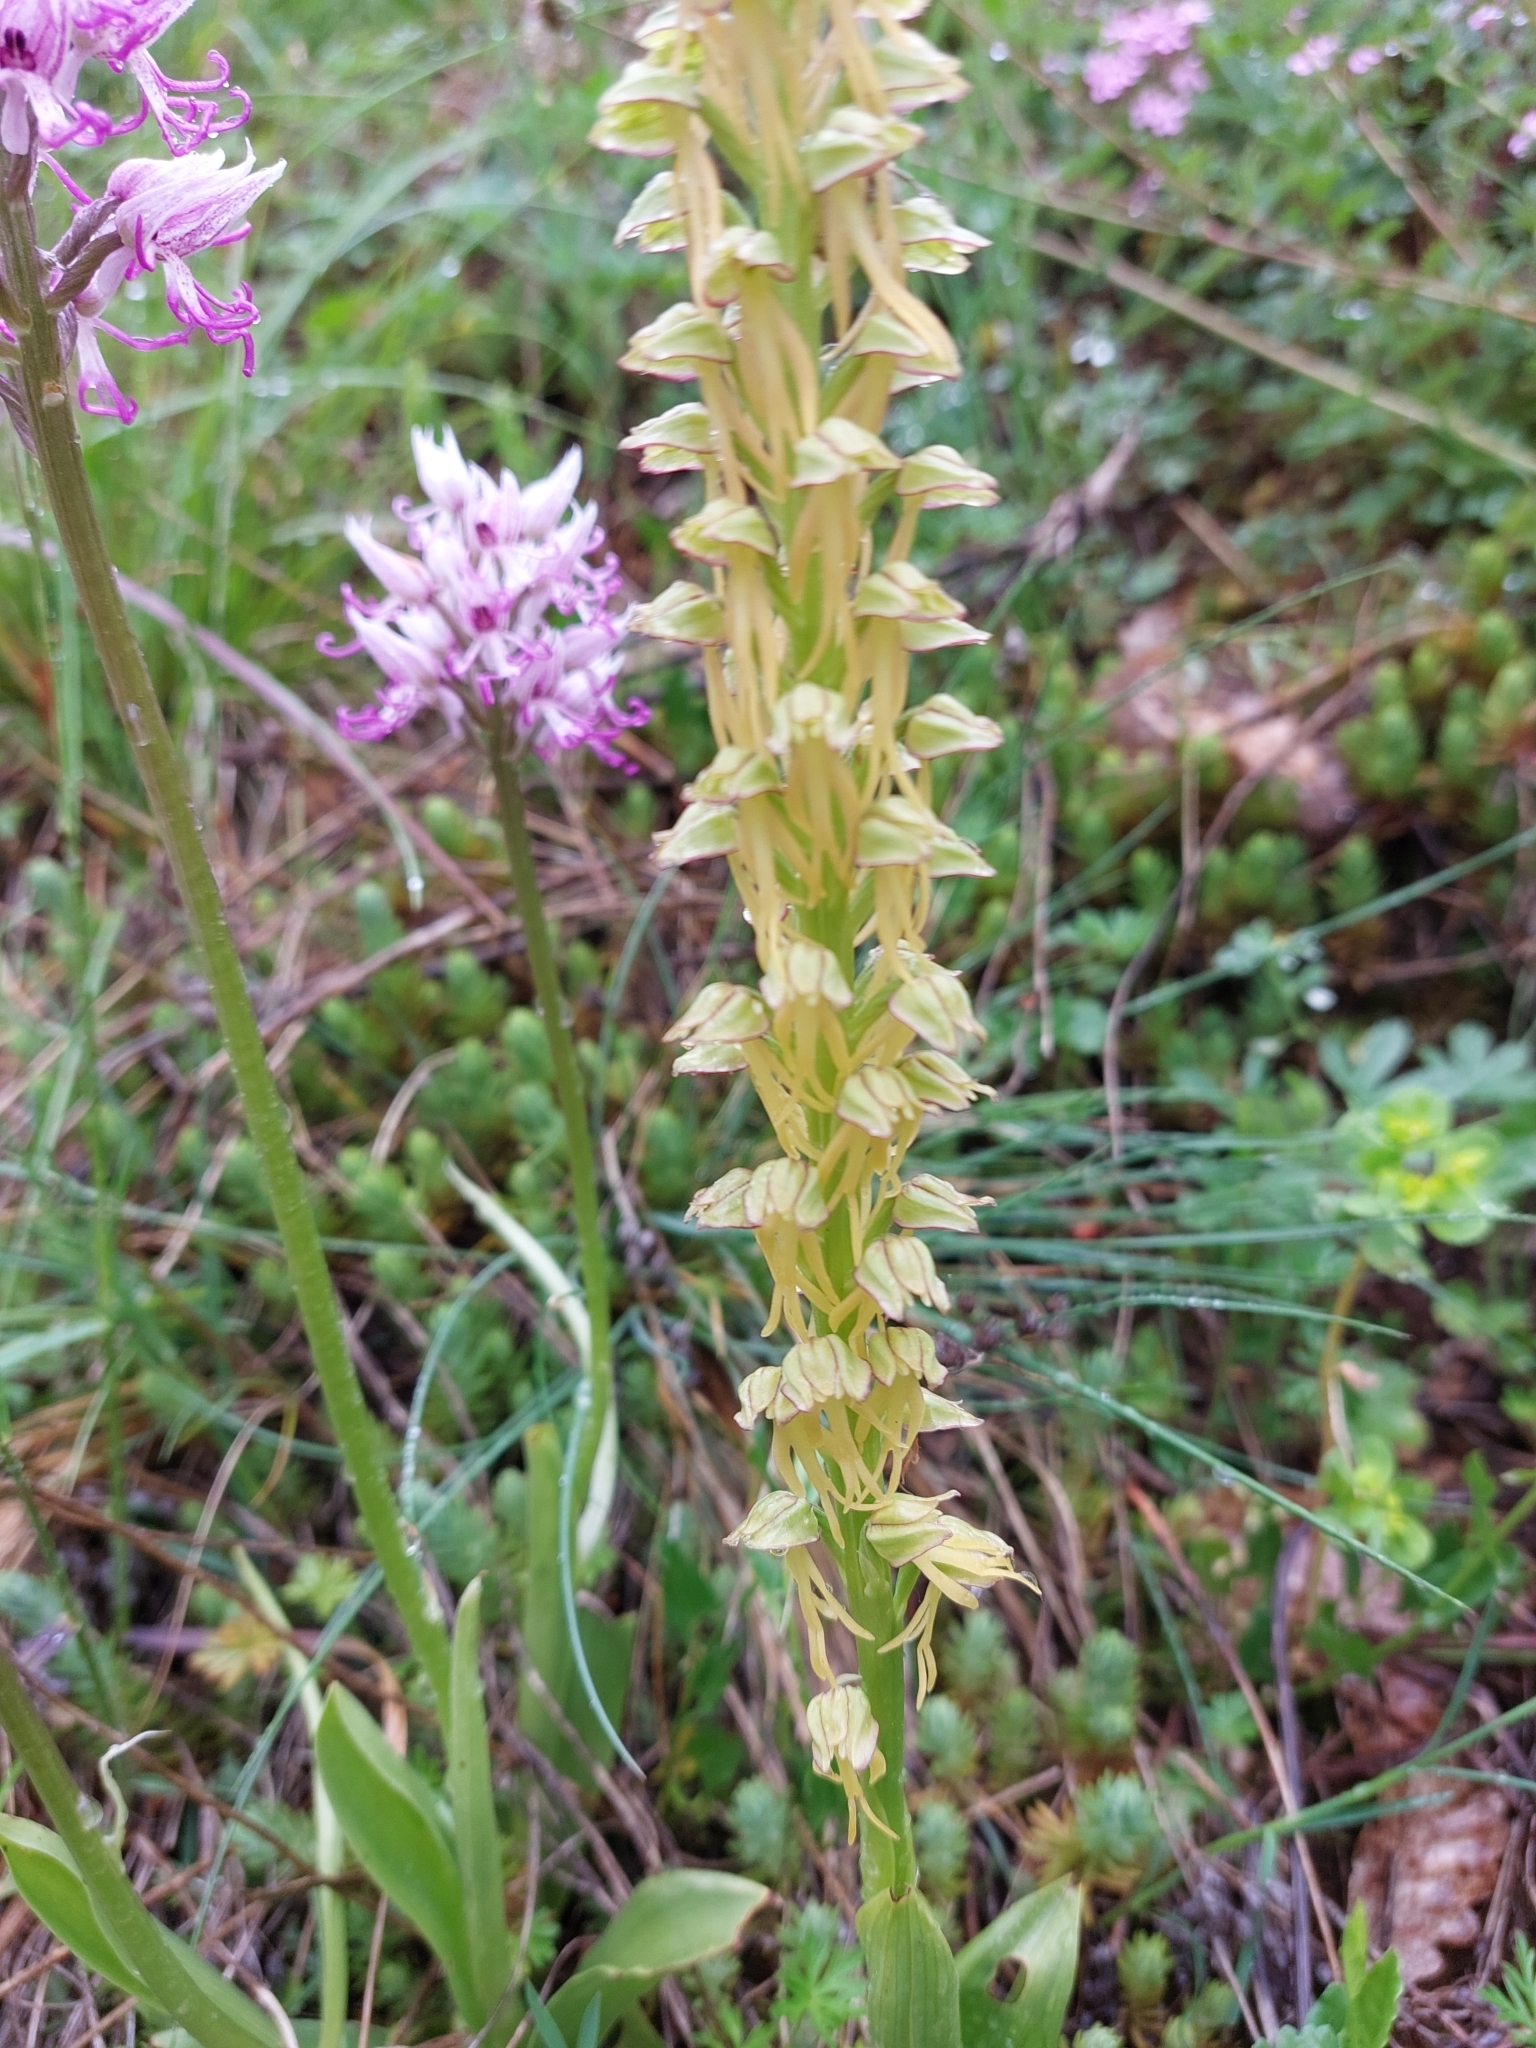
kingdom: Plantae
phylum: Tracheophyta
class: Liliopsida
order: Asparagales
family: Orchidaceae
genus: Orchis
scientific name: Orchis anthropophora
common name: Man orchid
